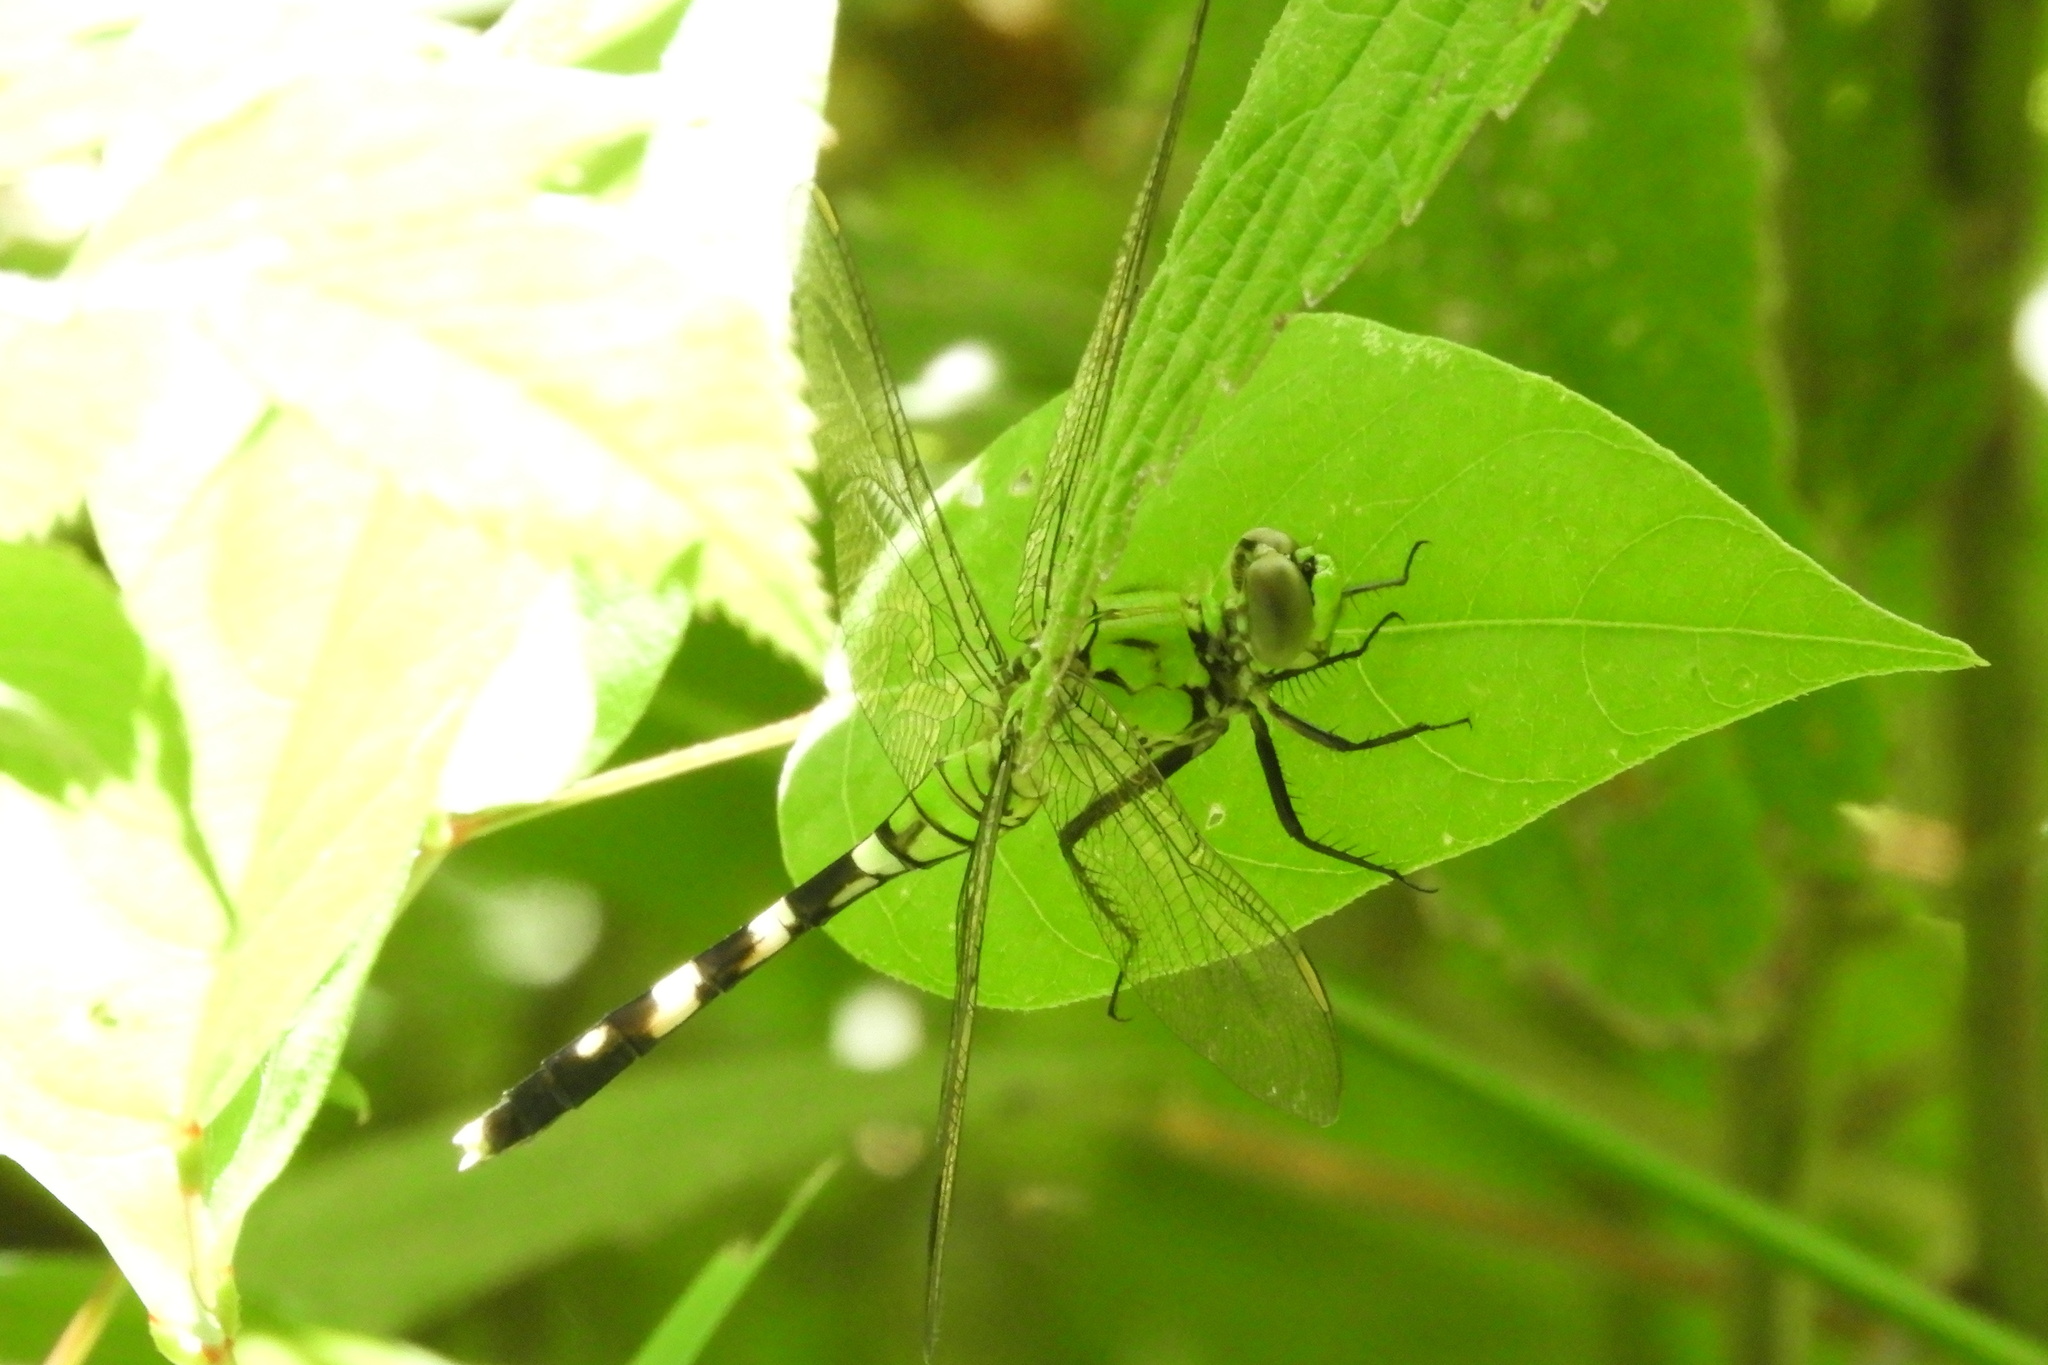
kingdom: Animalia
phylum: Arthropoda
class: Insecta
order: Odonata
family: Libellulidae
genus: Erythemis
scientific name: Erythemis simplicicollis
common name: Eastern pondhawk
